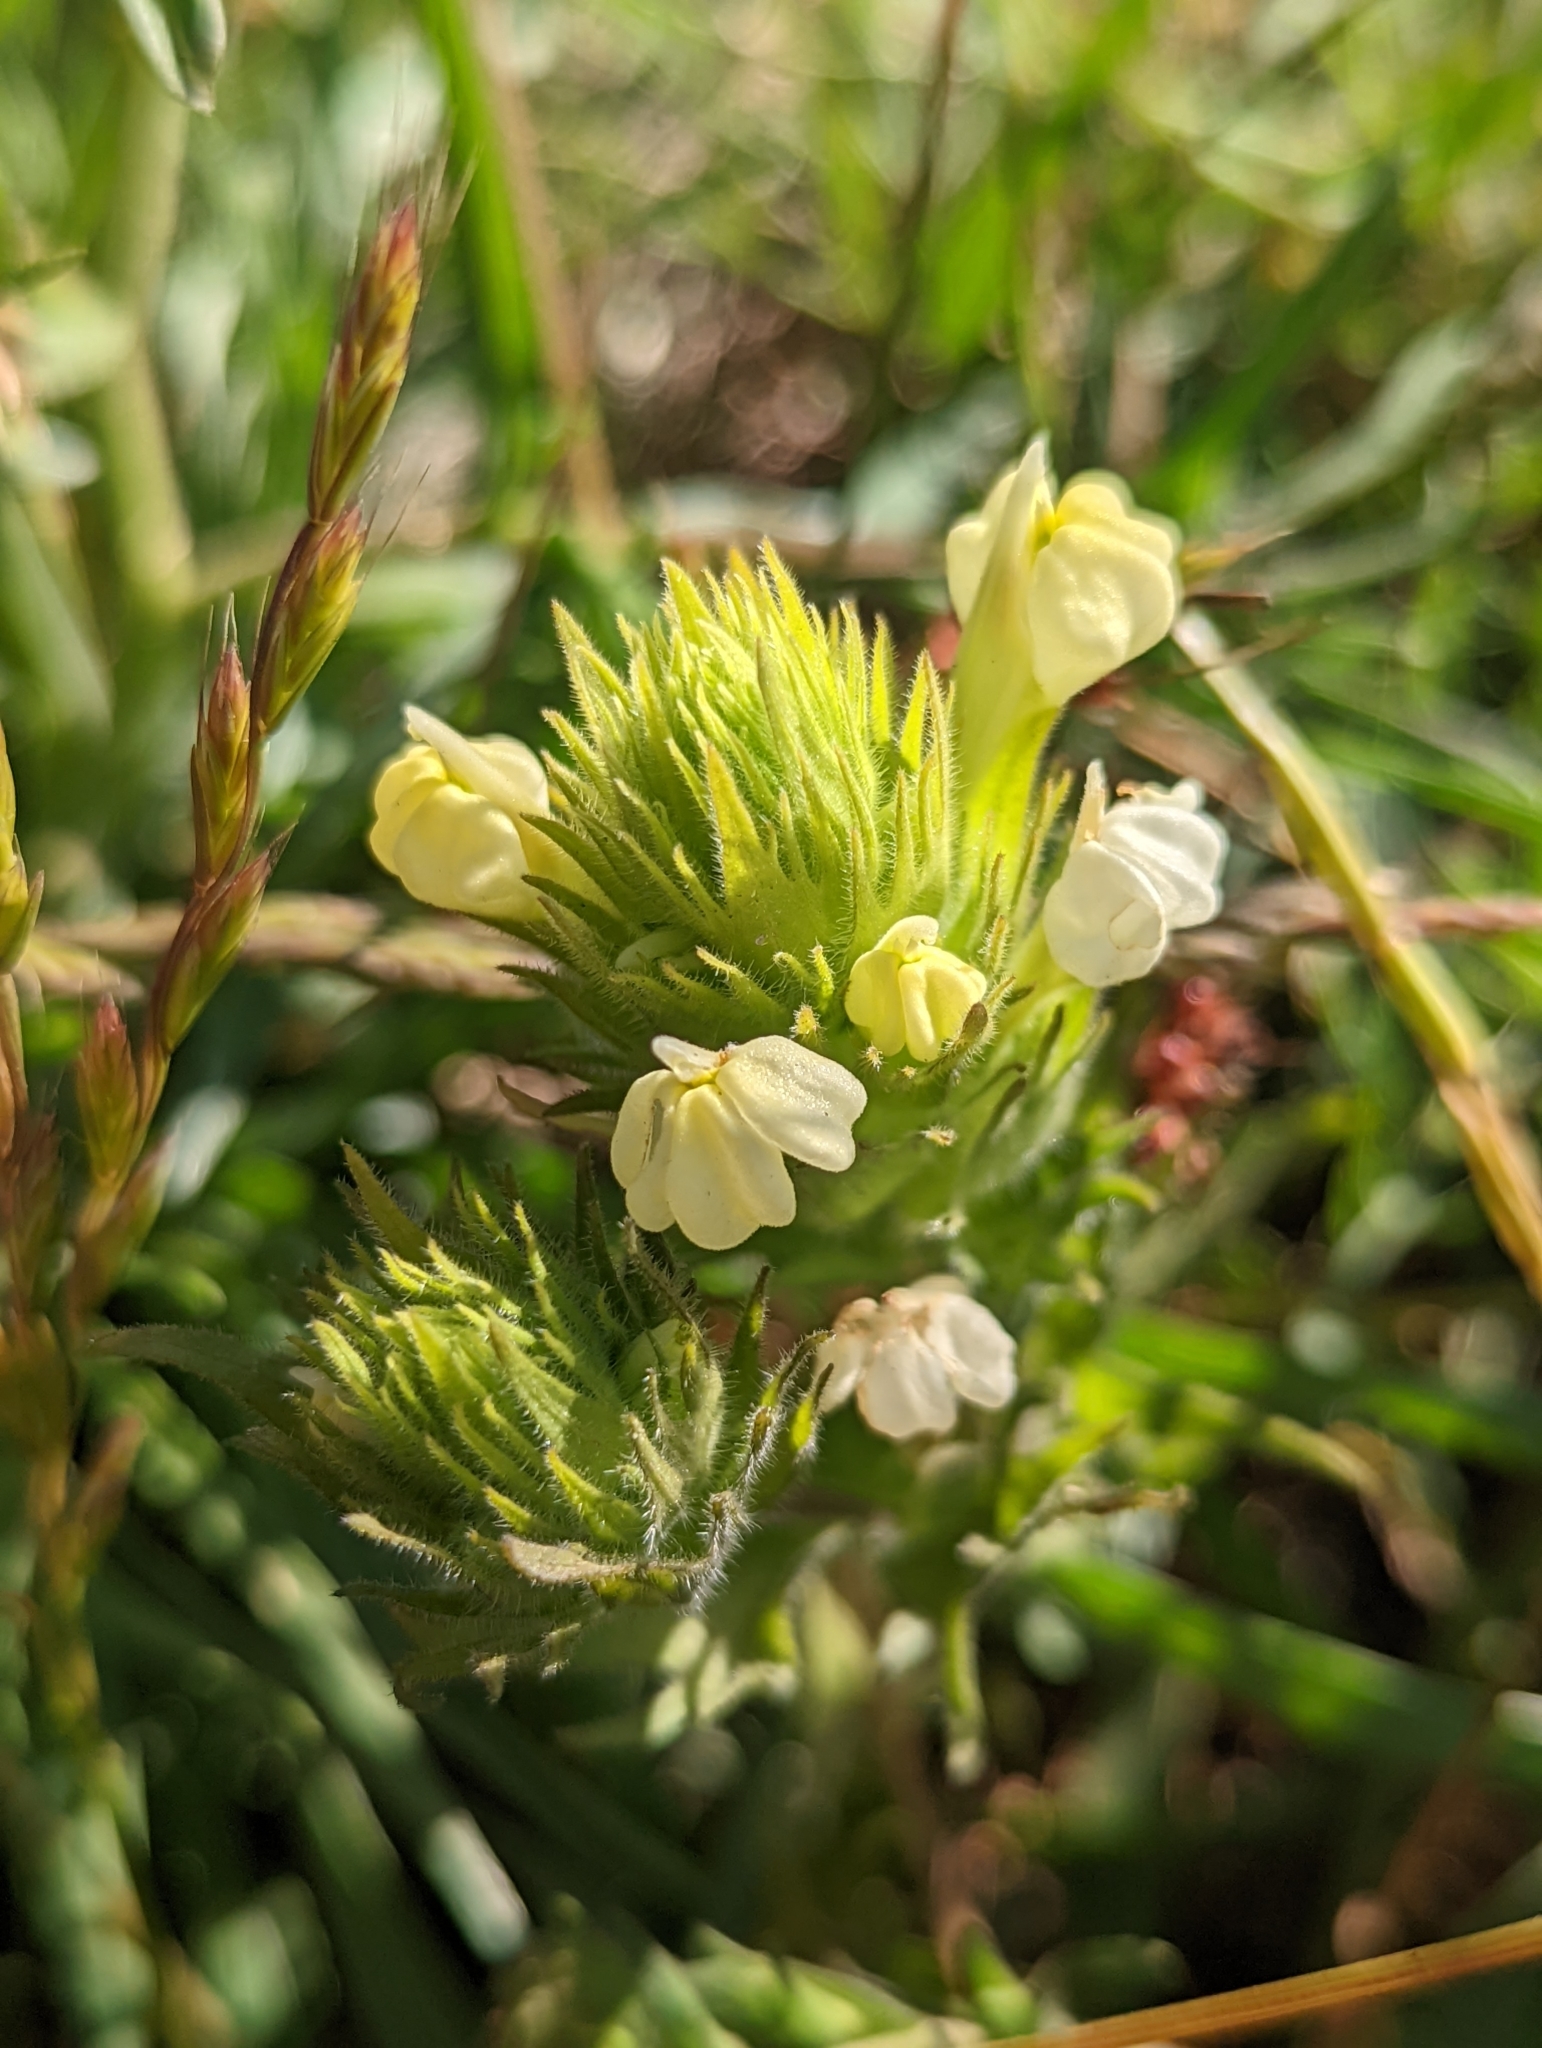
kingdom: Plantae
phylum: Tracheophyta
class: Magnoliopsida
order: Lamiales
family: Orobanchaceae
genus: Castilleja
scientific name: Castilleja rubicundula
